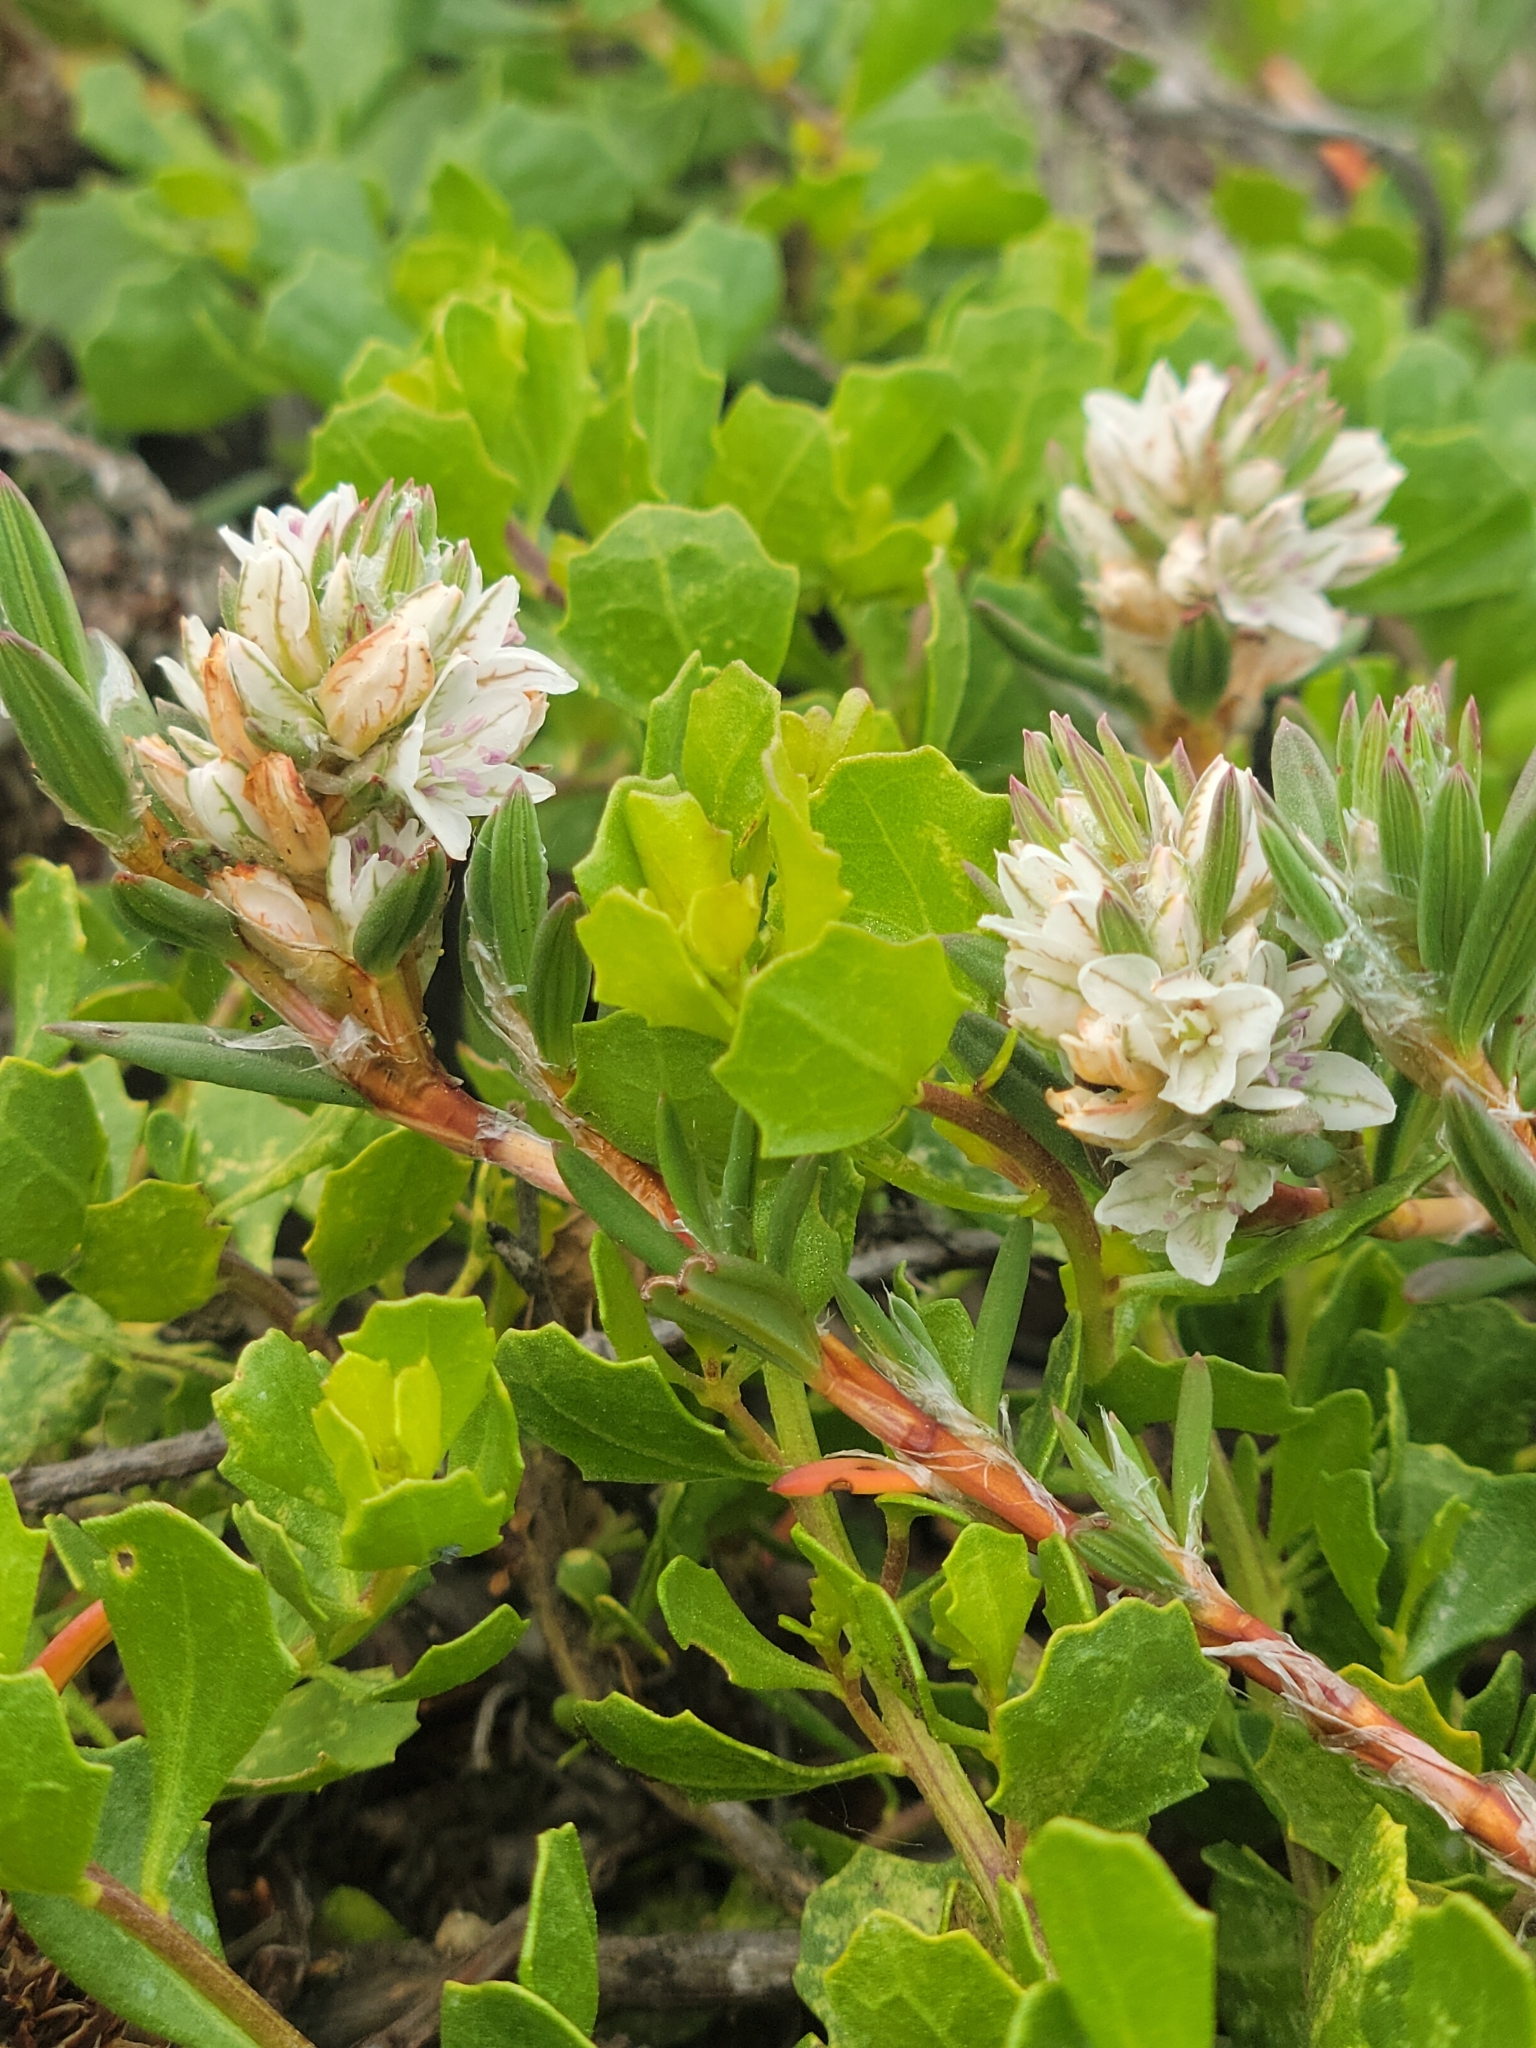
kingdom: Plantae
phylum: Tracheophyta
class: Magnoliopsida
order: Caryophyllales
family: Polygonaceae
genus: Polygonum
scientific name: Polygonum paronychia
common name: Dune knotweed
